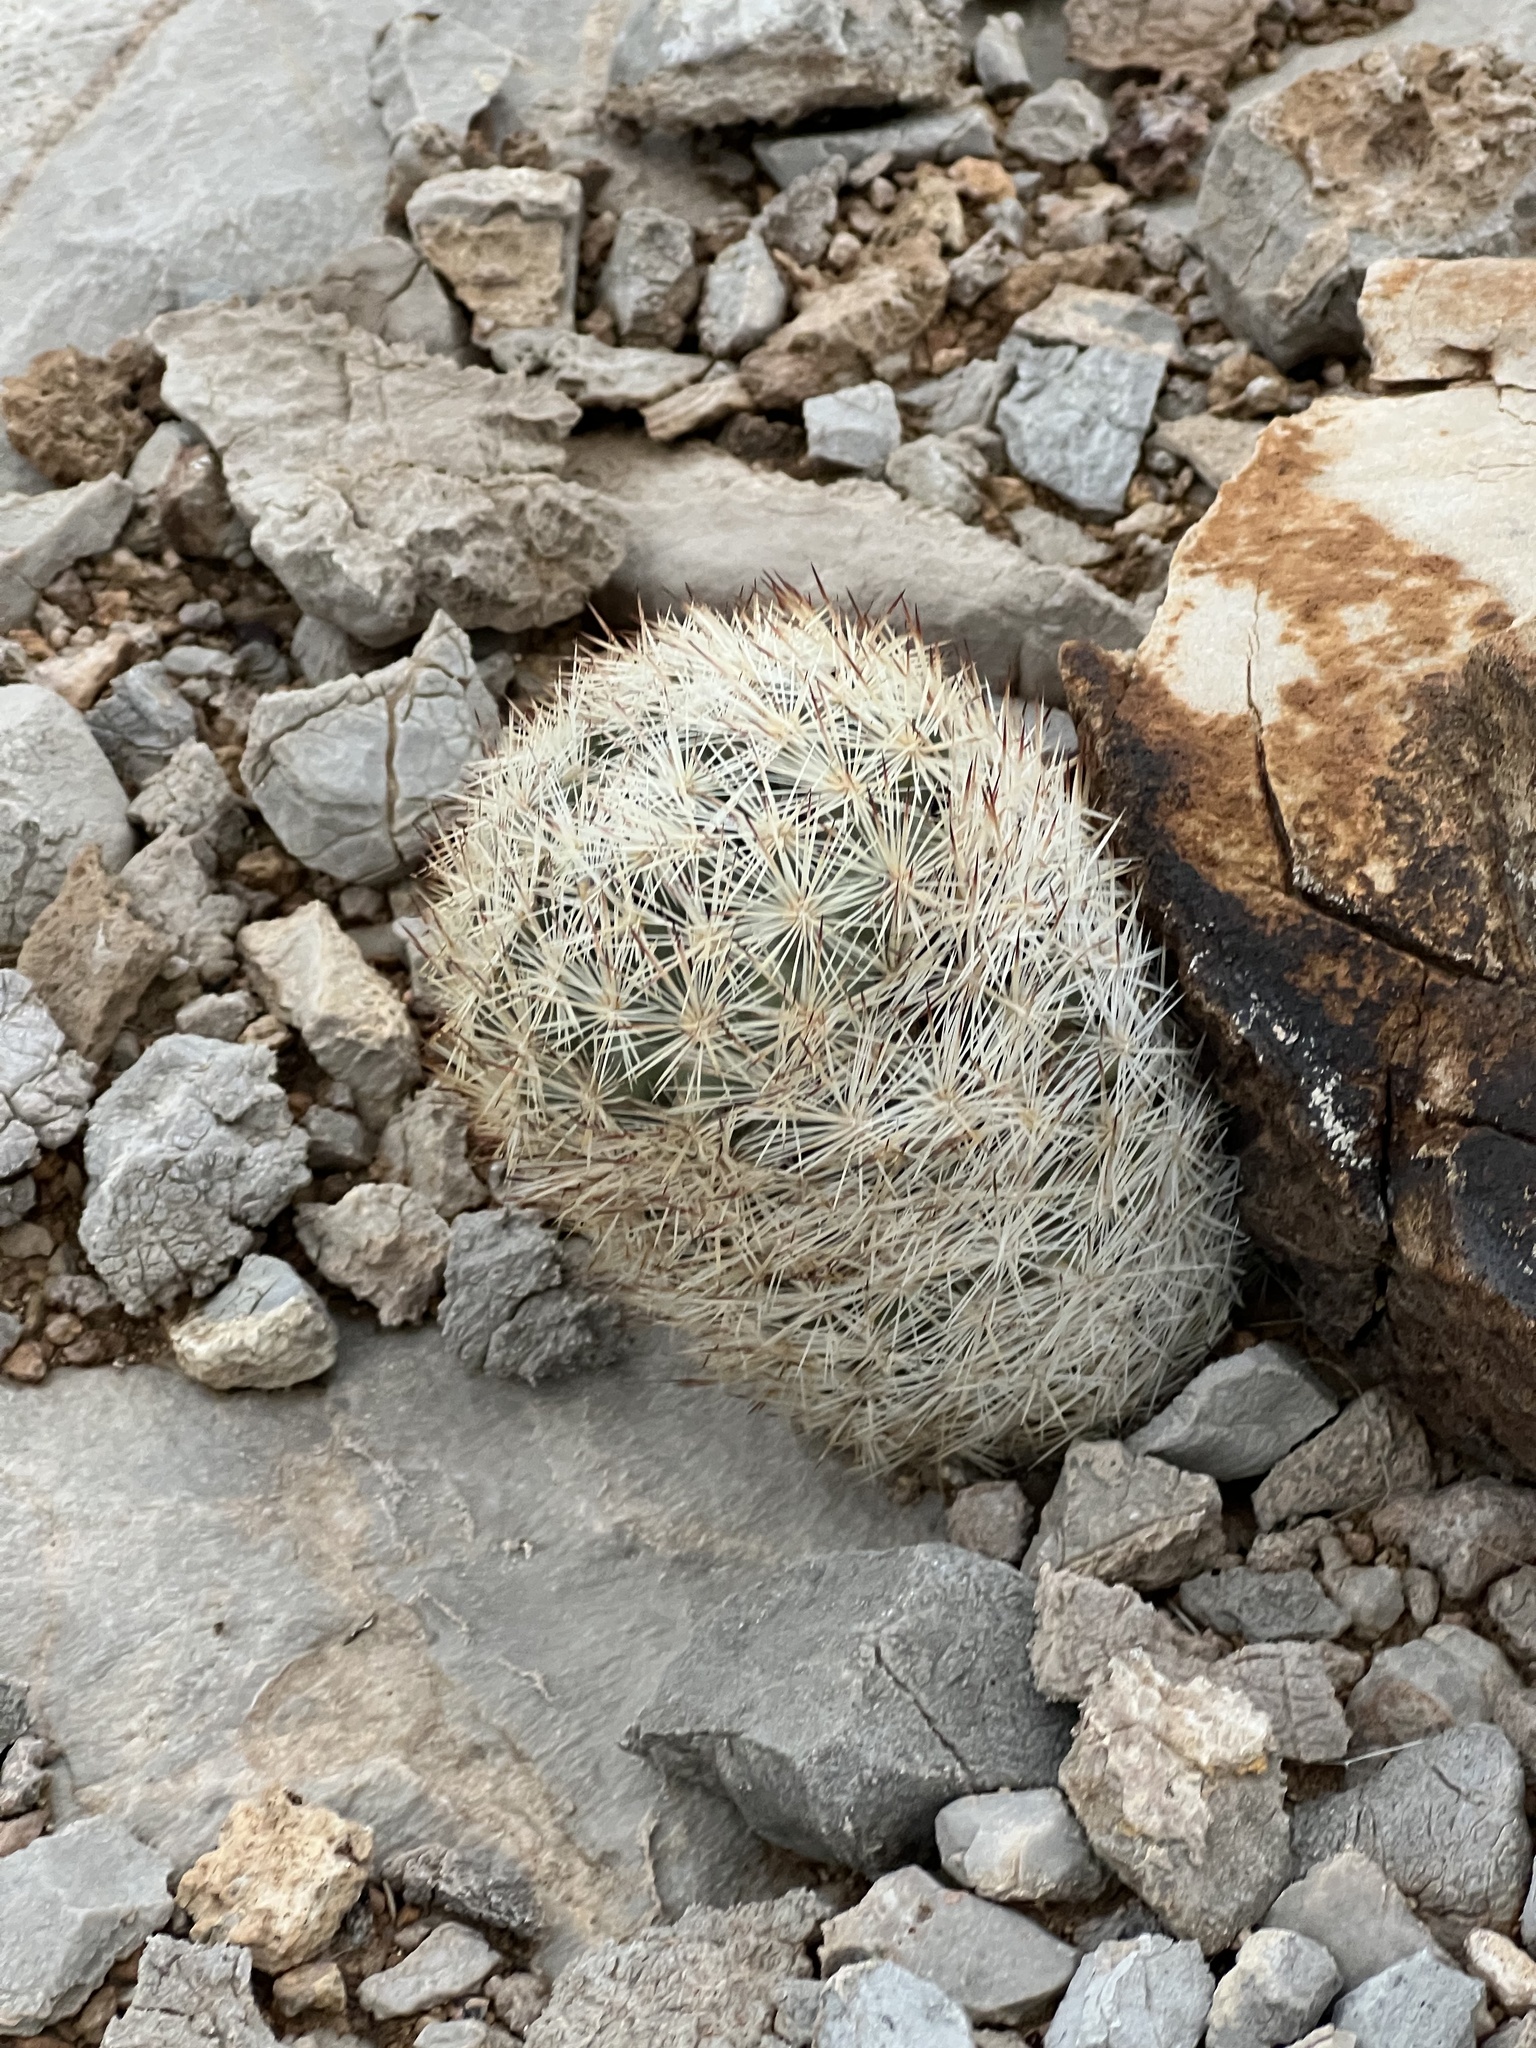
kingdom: Plantae
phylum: Tracheophyta
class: Magnoliopsida
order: Caryophyllales
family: Cactaceae
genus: Pelecyphora
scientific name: Pelecyphora dasyacantha
